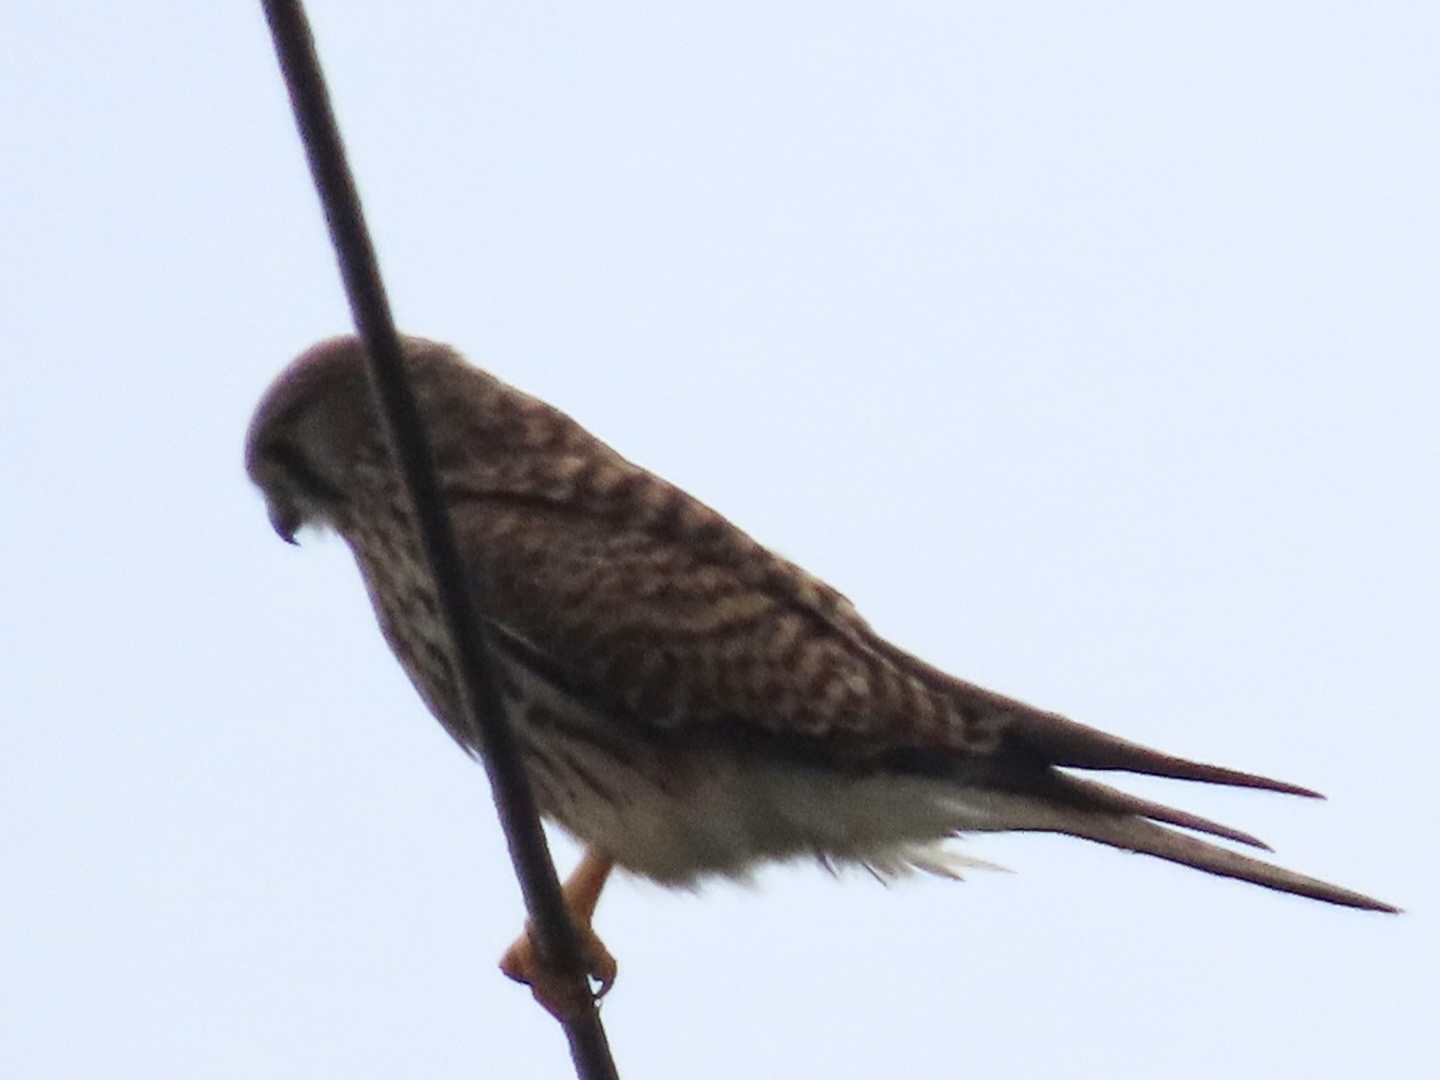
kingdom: Animalia
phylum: Chordata
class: Aves
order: Falconiformes
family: Falconidae
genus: Falco
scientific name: Falco tinnunculus
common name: Common kestrel
